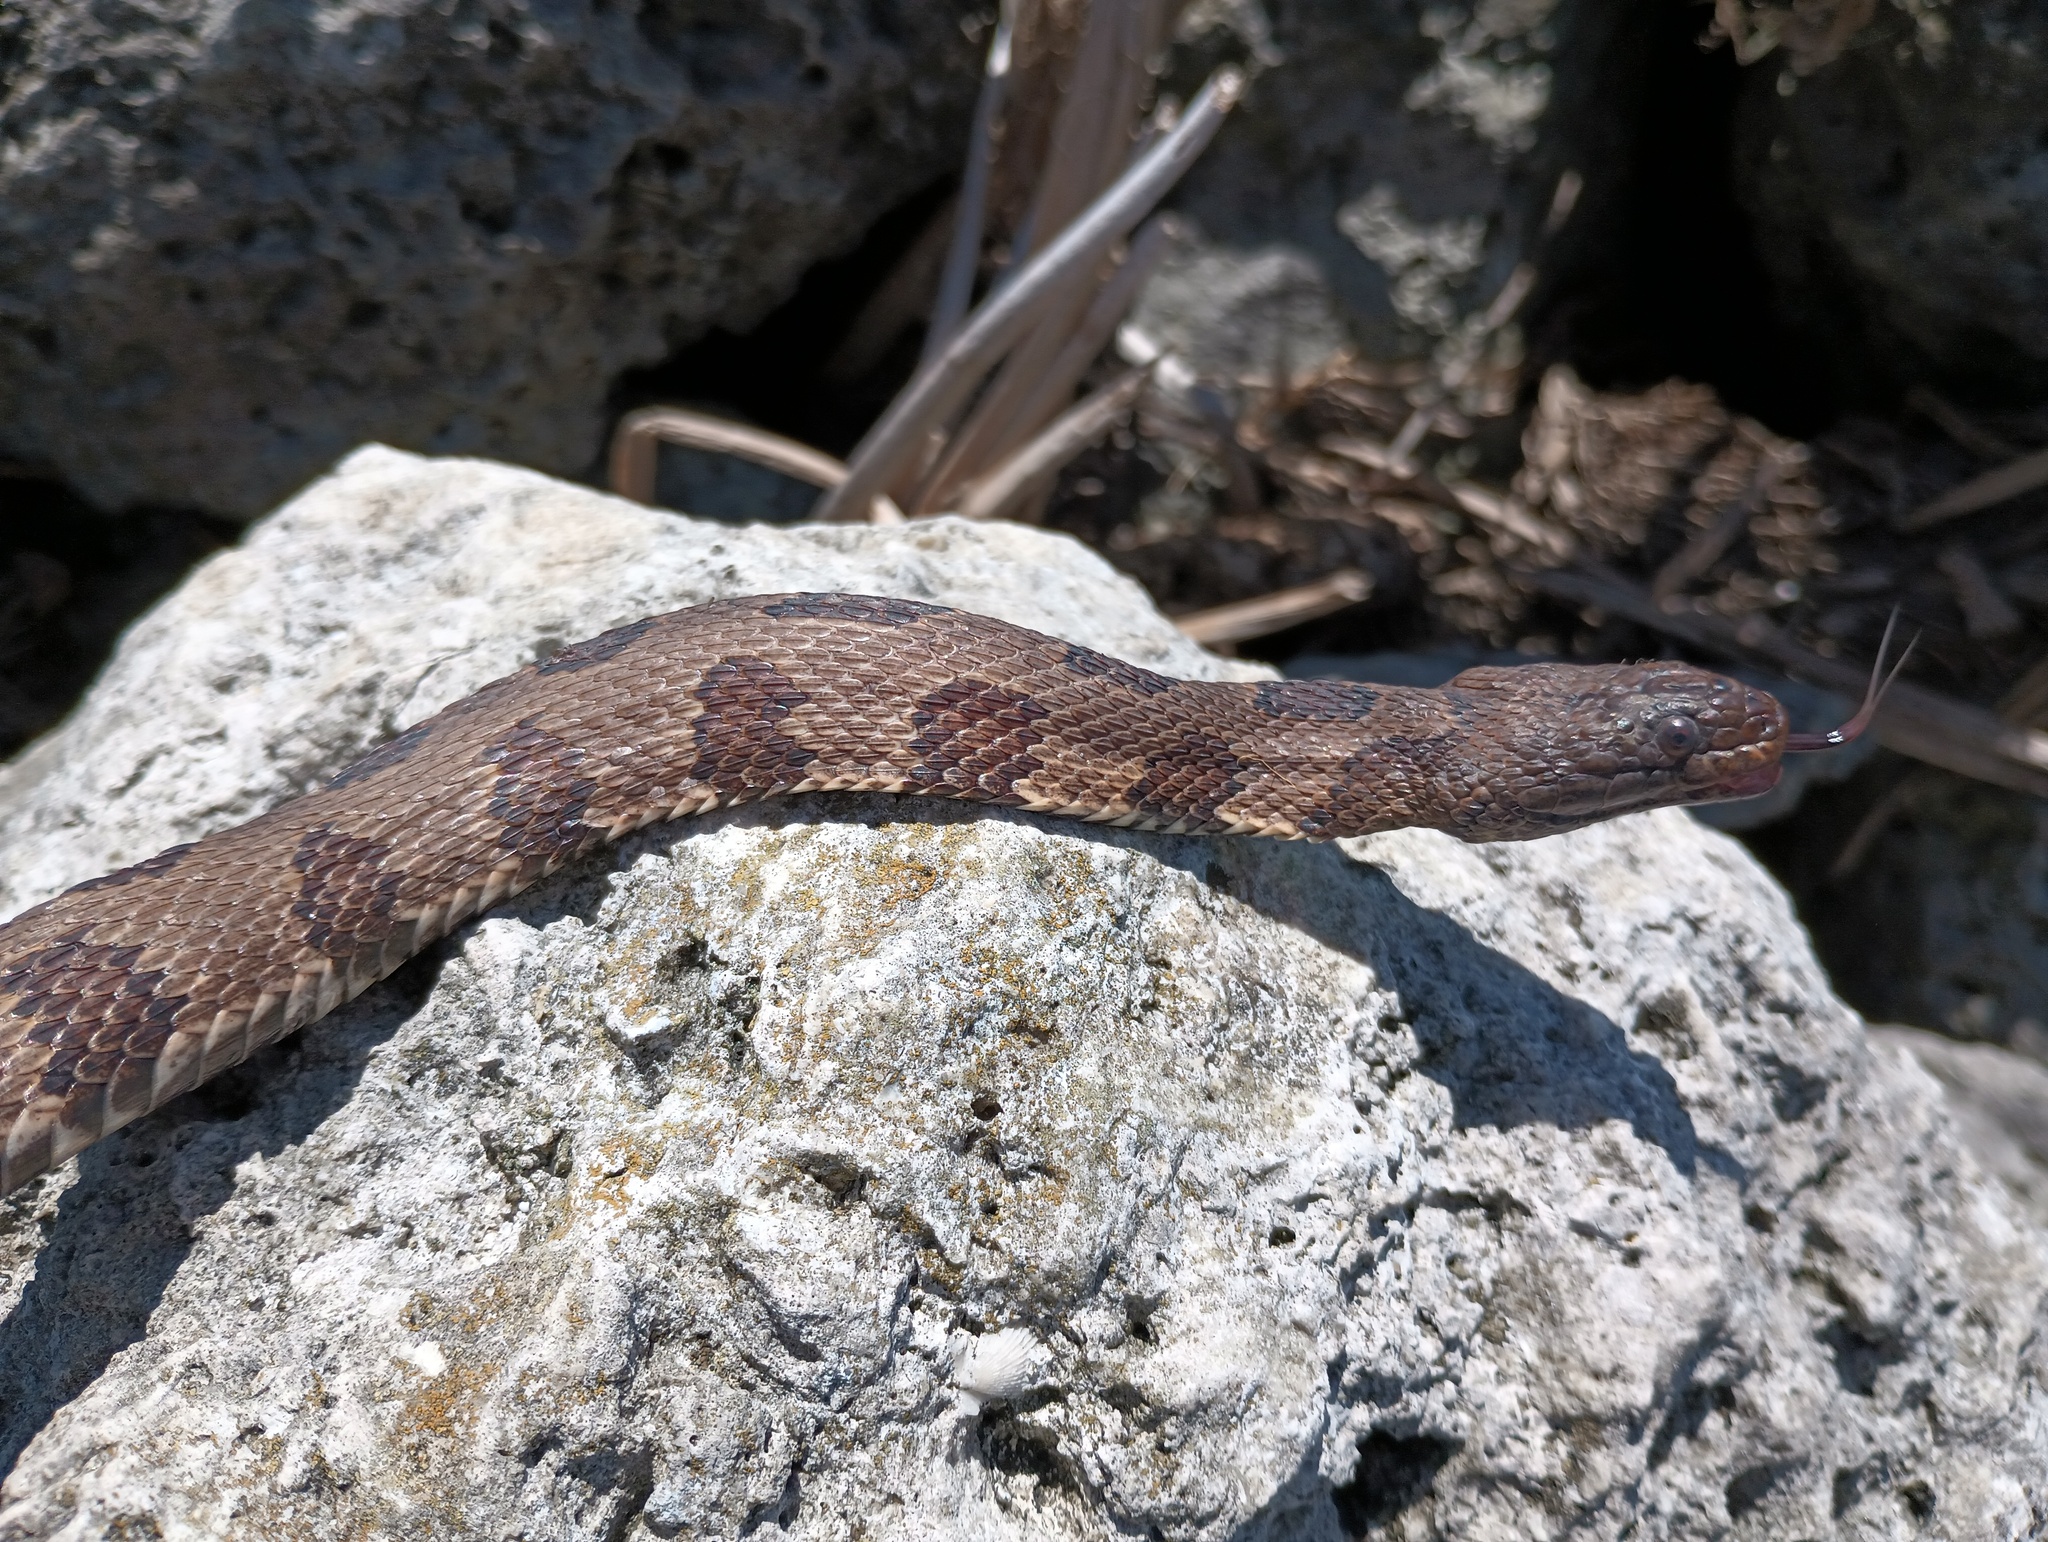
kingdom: Animalia
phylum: Chordata
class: Squamata
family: Colubridae
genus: Nerodia
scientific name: Nerodia taxispilota
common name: Brown water snake
